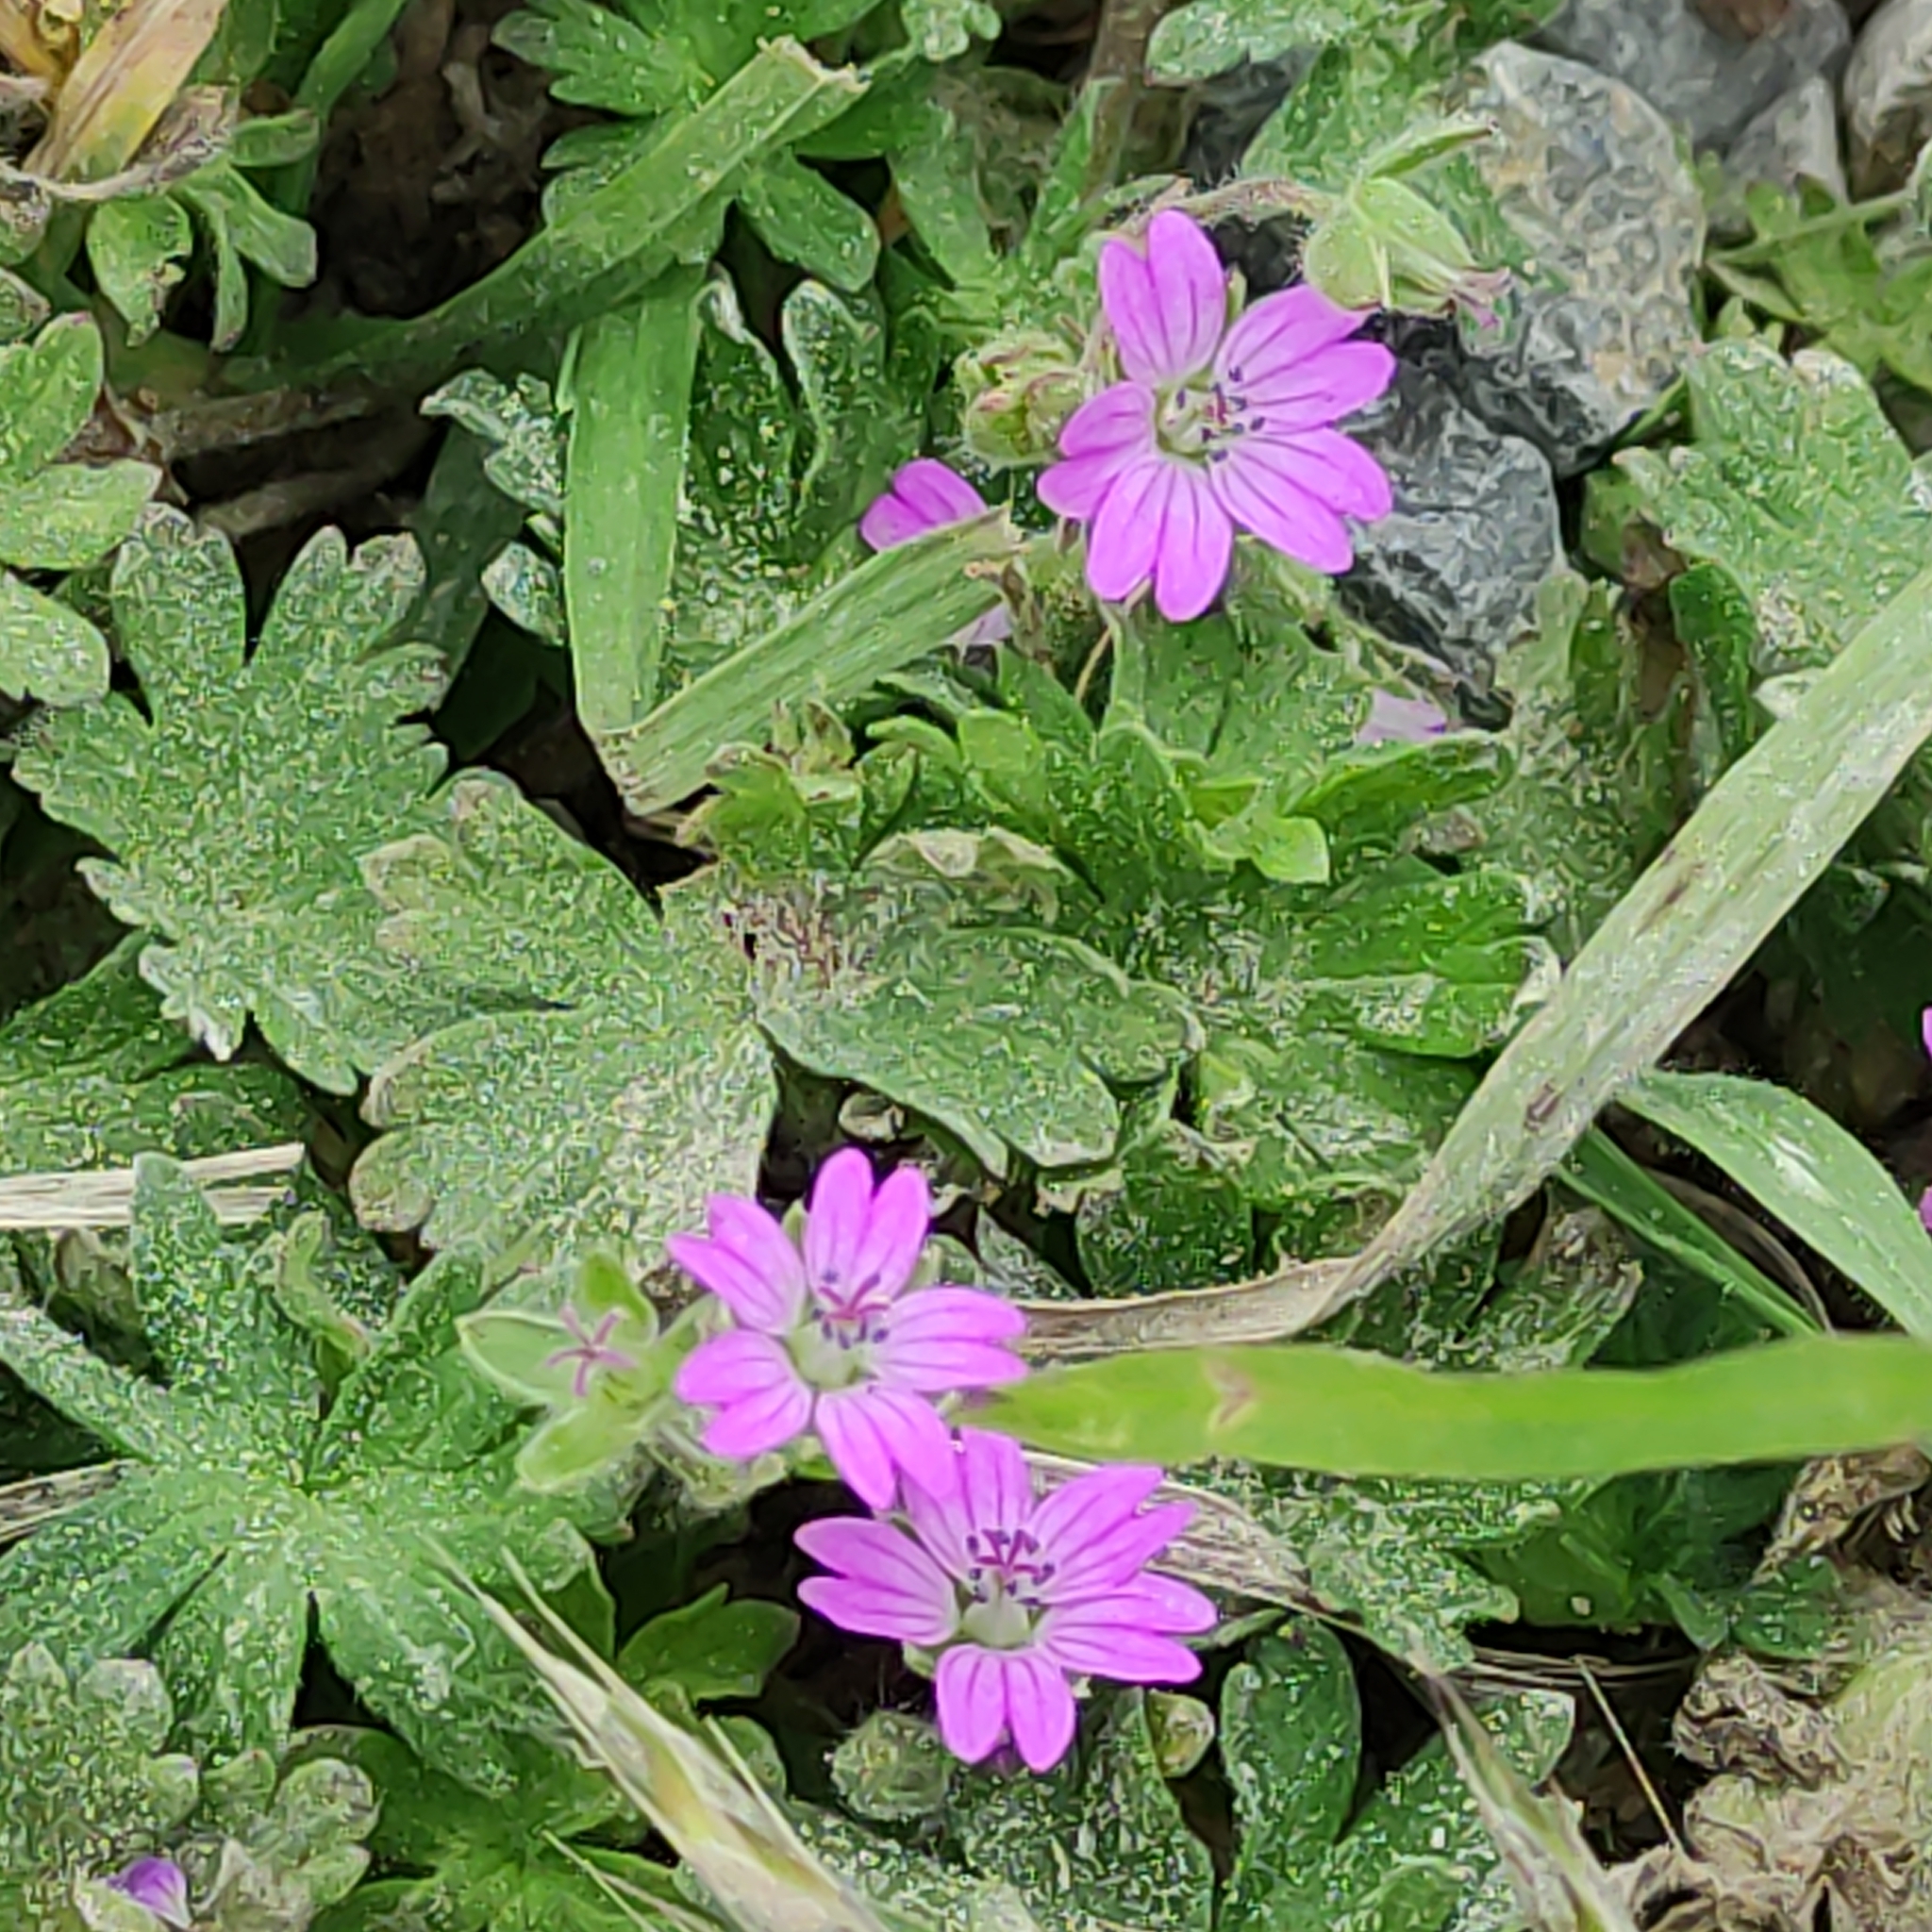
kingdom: Plantae
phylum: Tracheophyta
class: Magnoliopsida
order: Geraniales
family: Geraniaceae
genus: Geranium
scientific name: Geranium molle
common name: Dove's-foot crane's-bill
